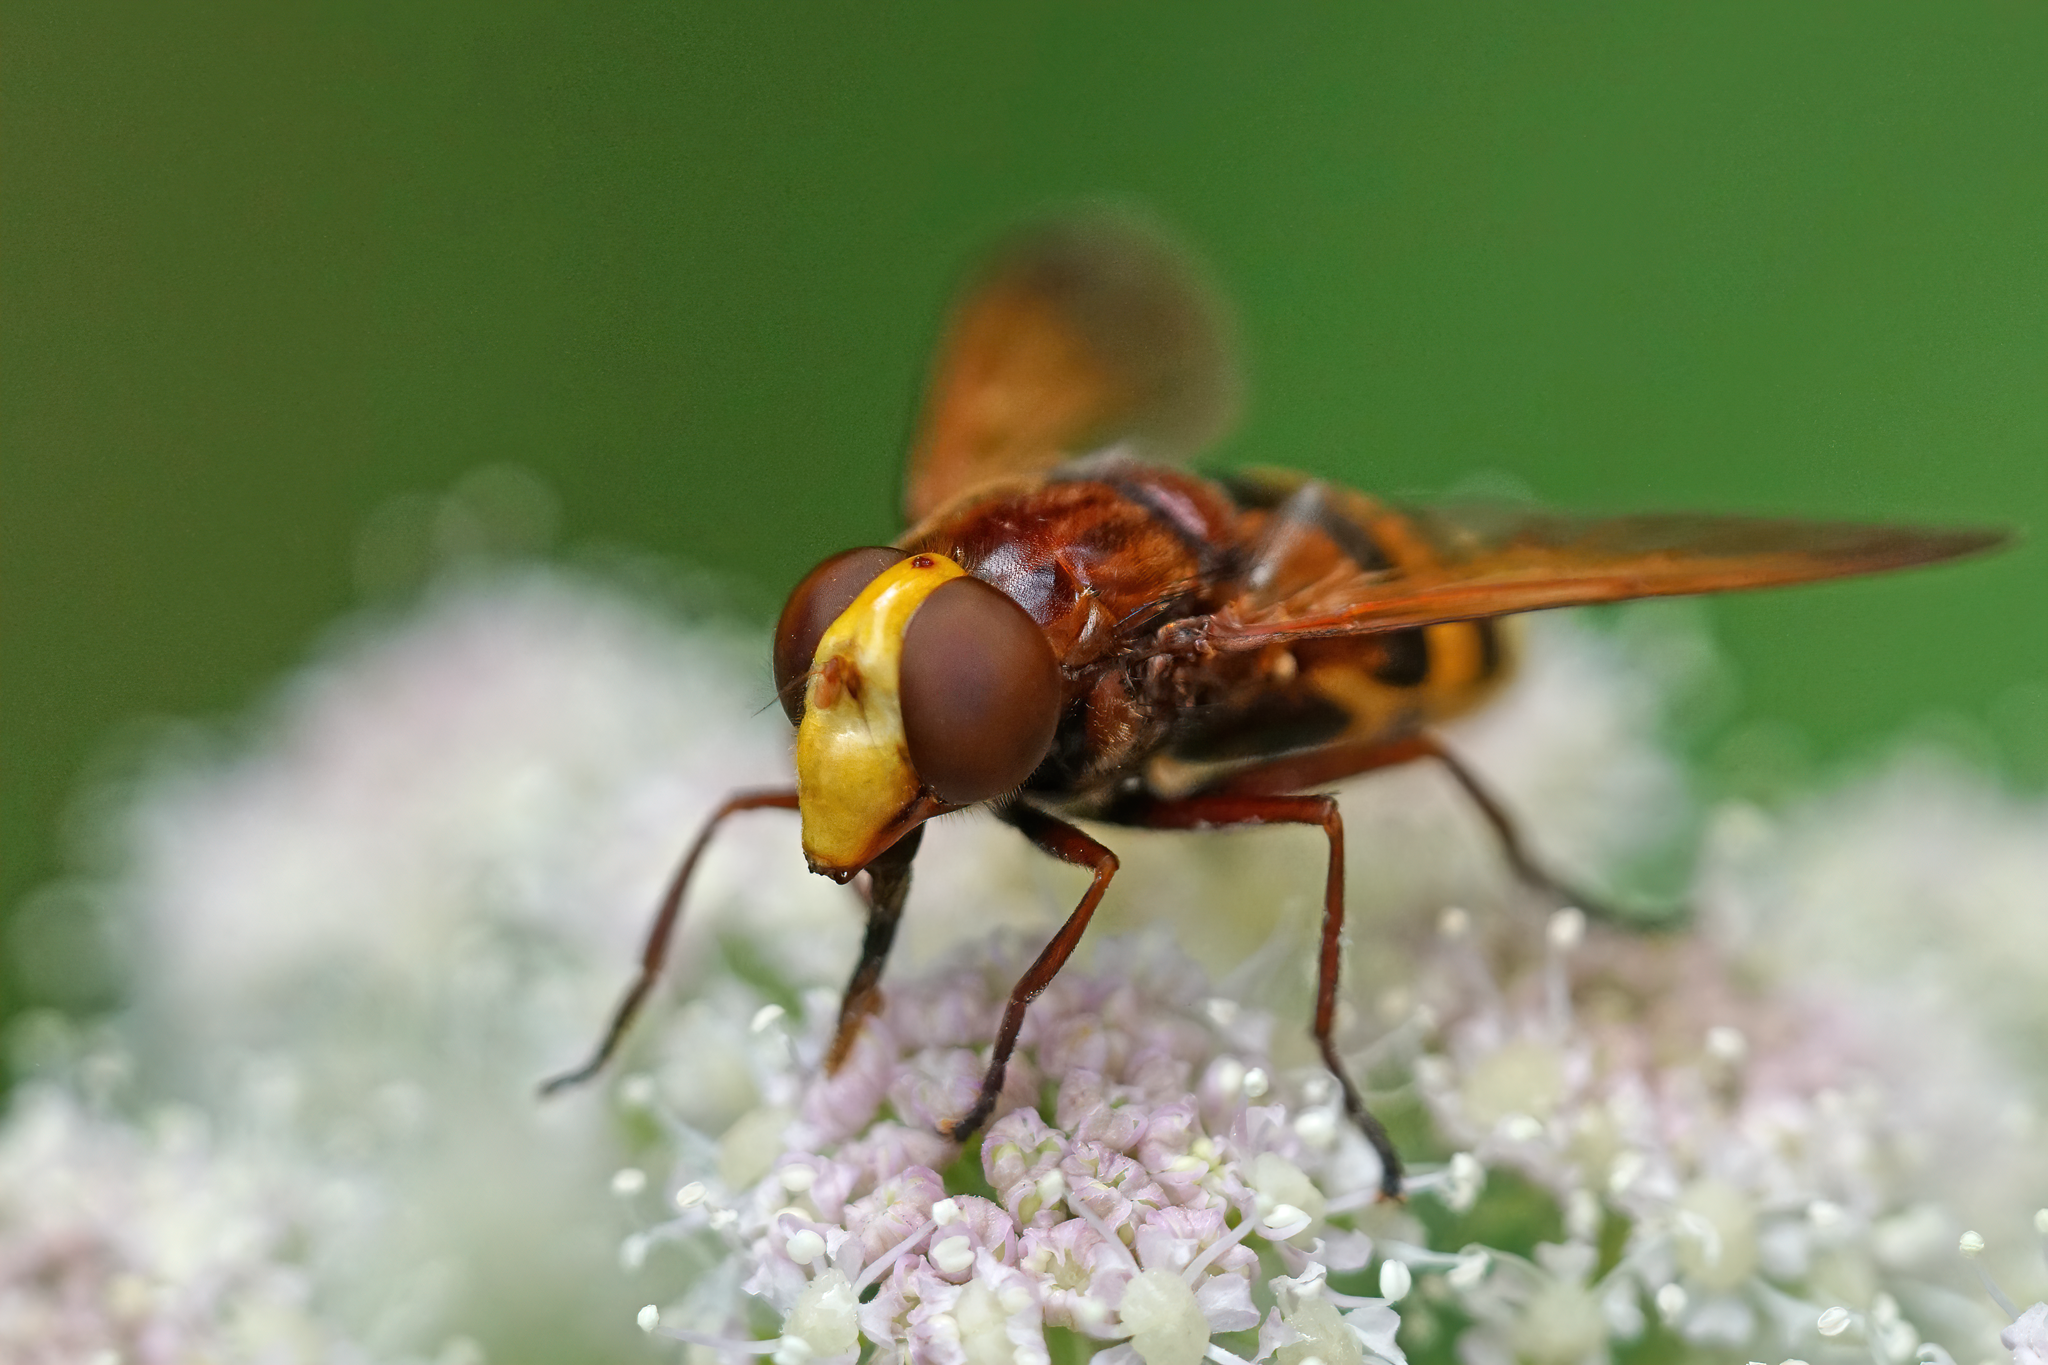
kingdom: Animalia
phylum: Arthropoda
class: Insecta
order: Diptera
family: Syrphidae
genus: Volucella
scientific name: Volucella zonaria
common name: Hornet hoverfly
